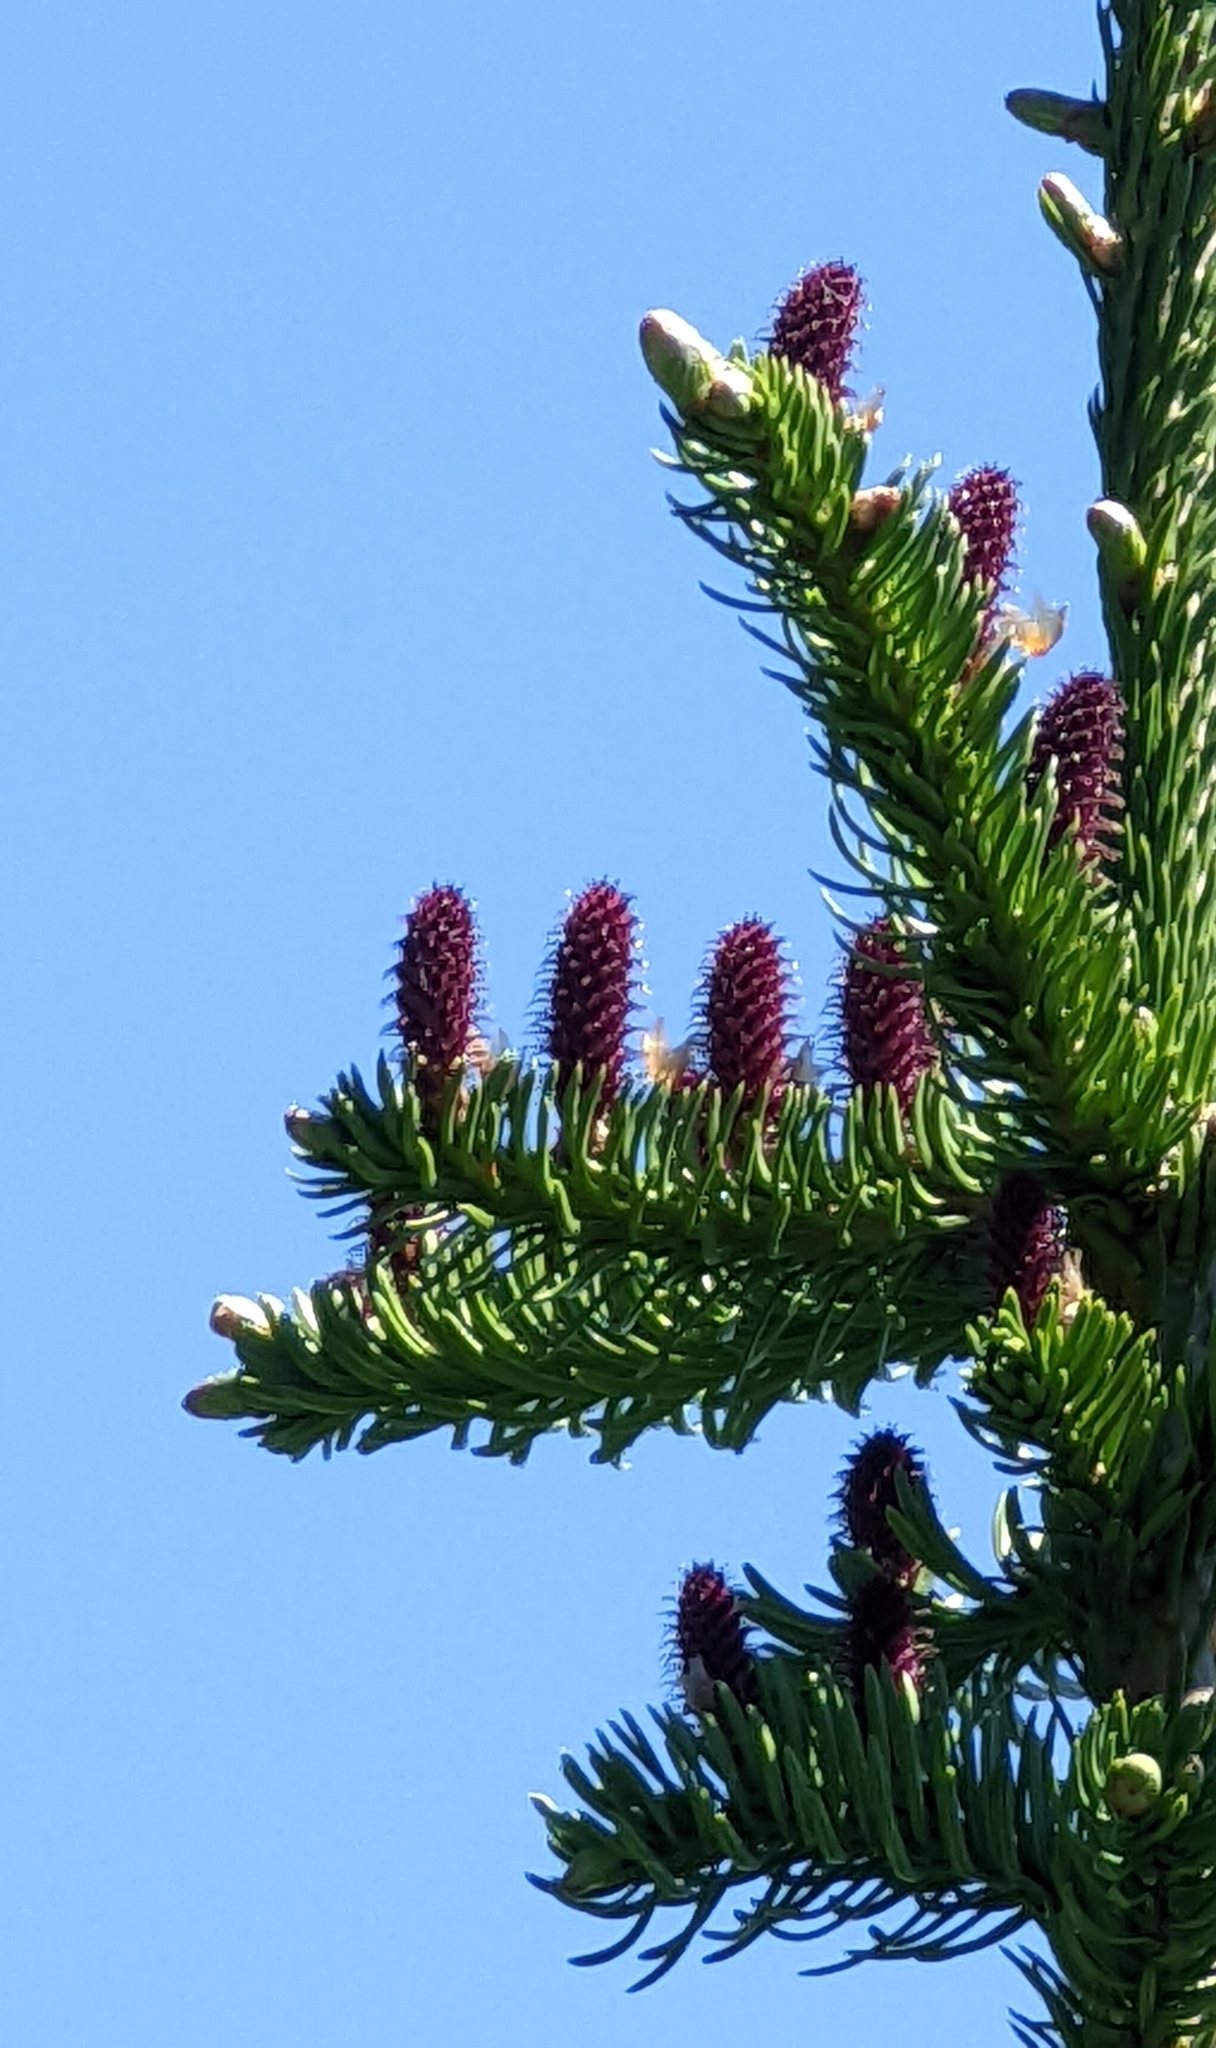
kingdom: Plantae
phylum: Tracheophyta
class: Pinopsida
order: Pinales
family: Pinaceae
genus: Abies
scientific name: Abies lasiocarpa
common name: Subalpine fir
